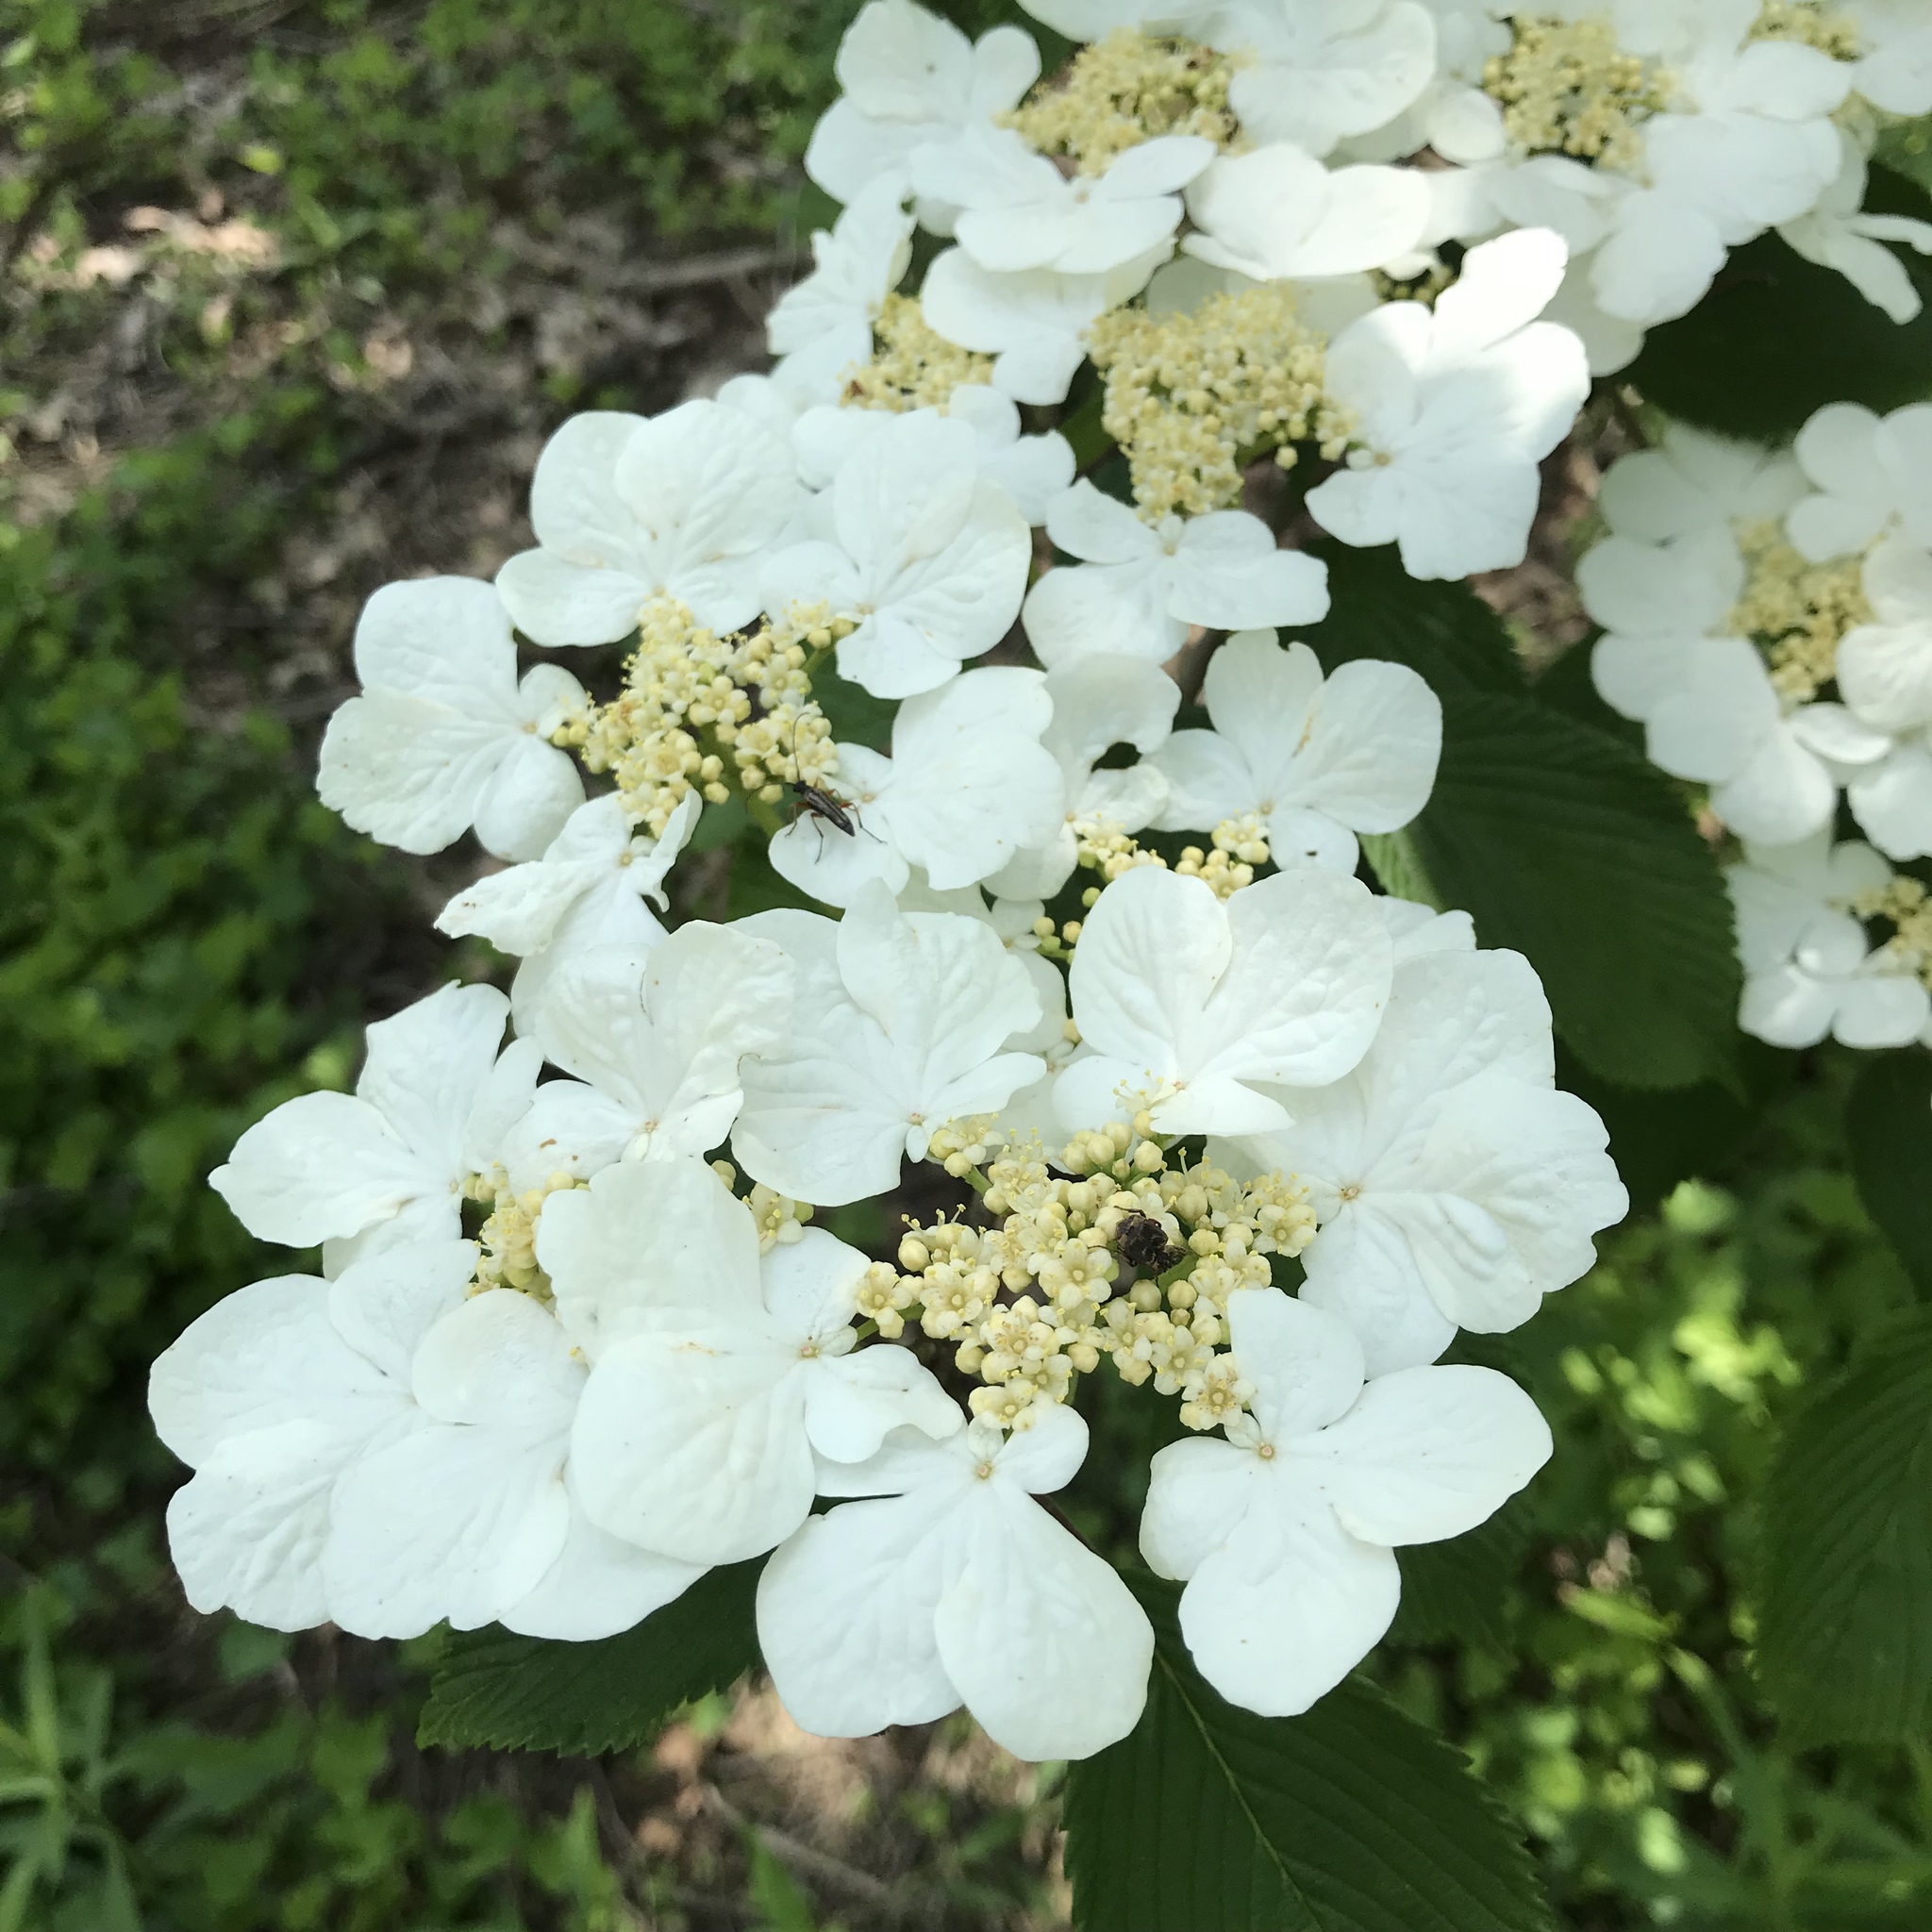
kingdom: Plantae
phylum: Tracheophyta
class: Magnoliopsida
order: Dipsacales
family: Viburnaceae
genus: Viburnum
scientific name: Viburnum plicatum
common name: Japanese snowball
